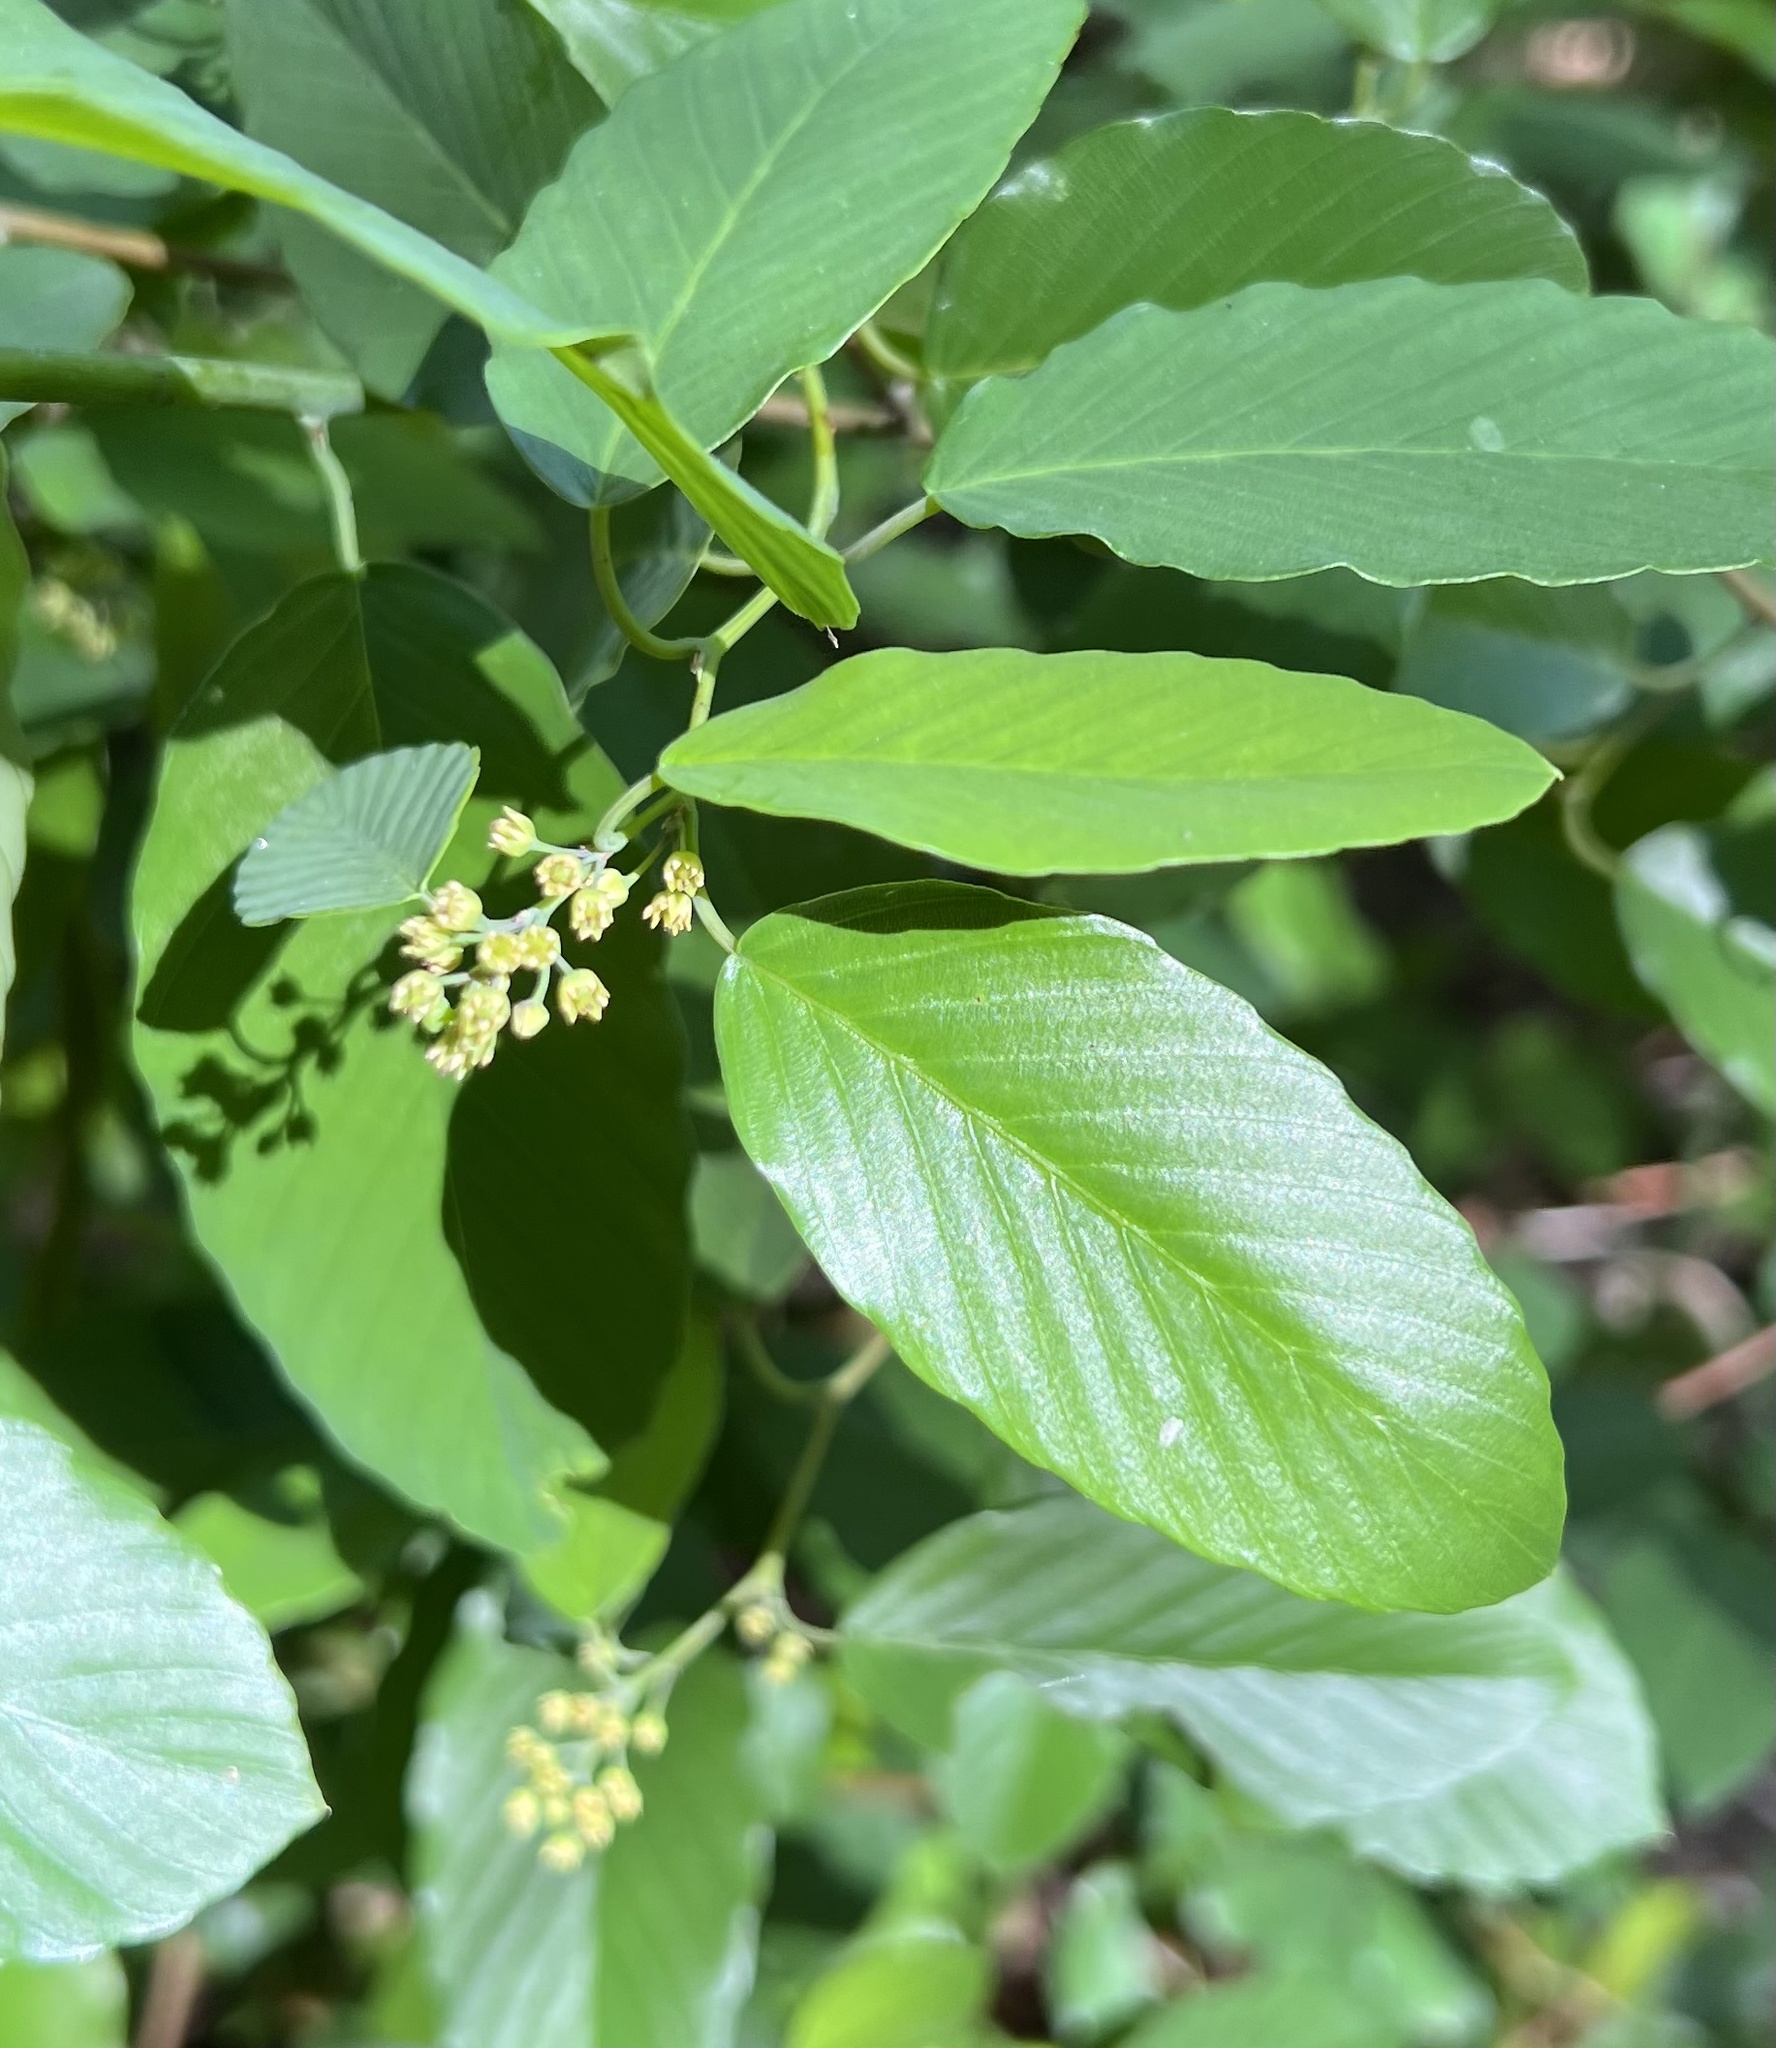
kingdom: Plantae
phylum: Tracheophyta
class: Magnoliopsida
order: Rosales
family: Rhamnaceae
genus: Berchemia
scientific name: Berchemia scandens
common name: Supplejack
